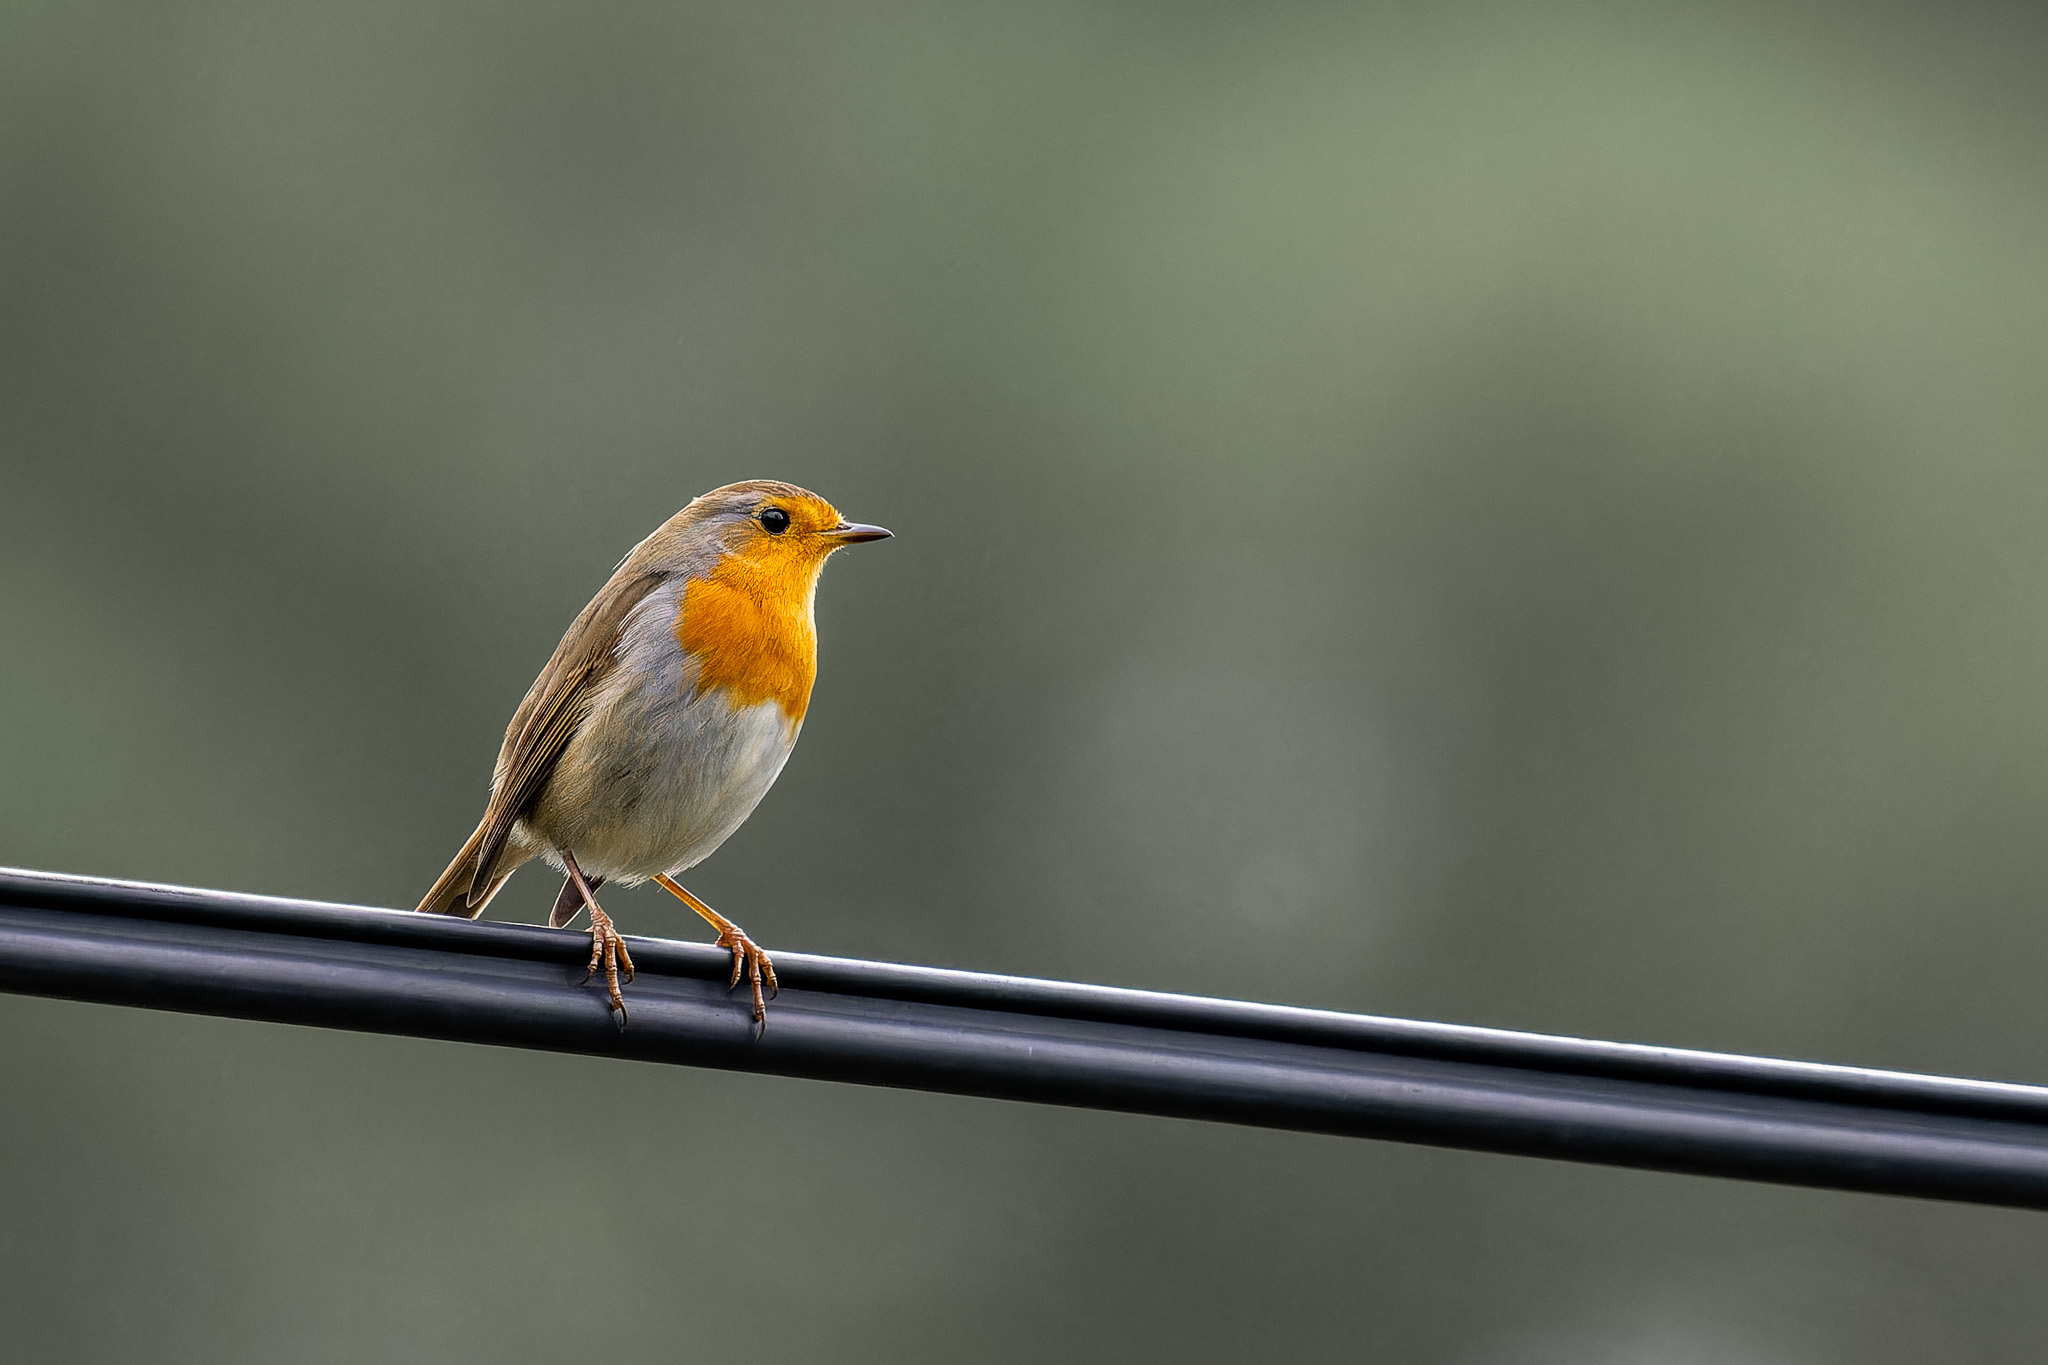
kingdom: Animalia
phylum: Chordata
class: Aves
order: Passeriformes
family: Muscicapidae
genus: Erithacus
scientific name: Erithacus rubecula
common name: European robin
